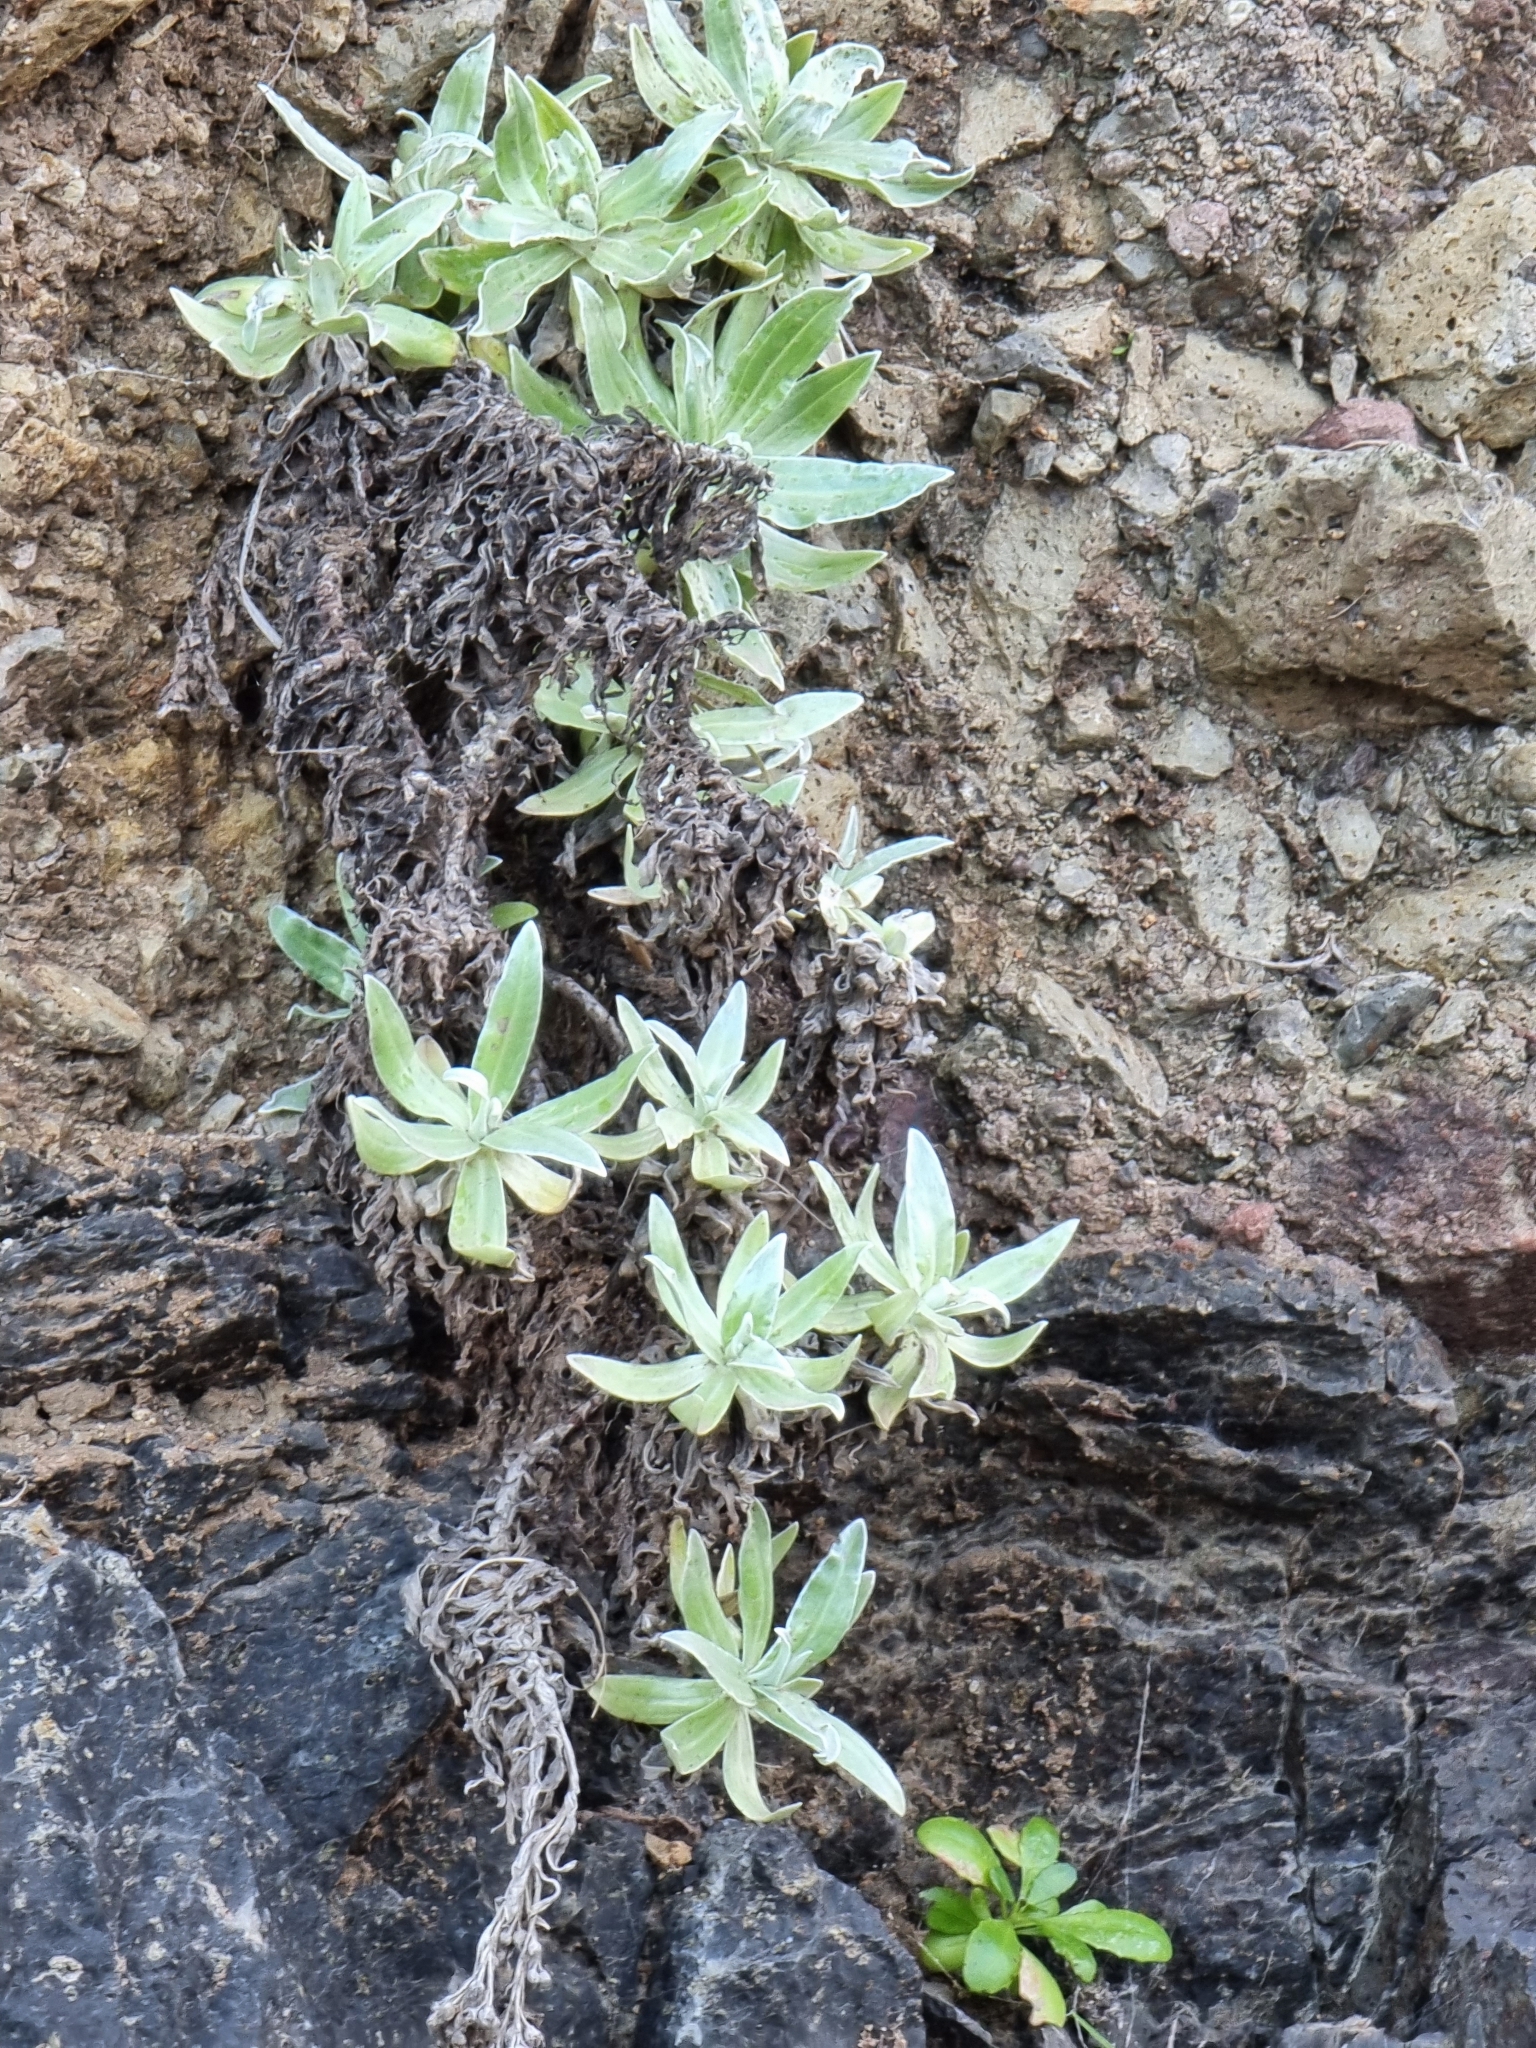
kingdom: Plantae
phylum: Tracheophyta
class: Magnoliopsida
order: Asterales
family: Asteraceae
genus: Helichrysum
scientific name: Helichrysum melaleucum
